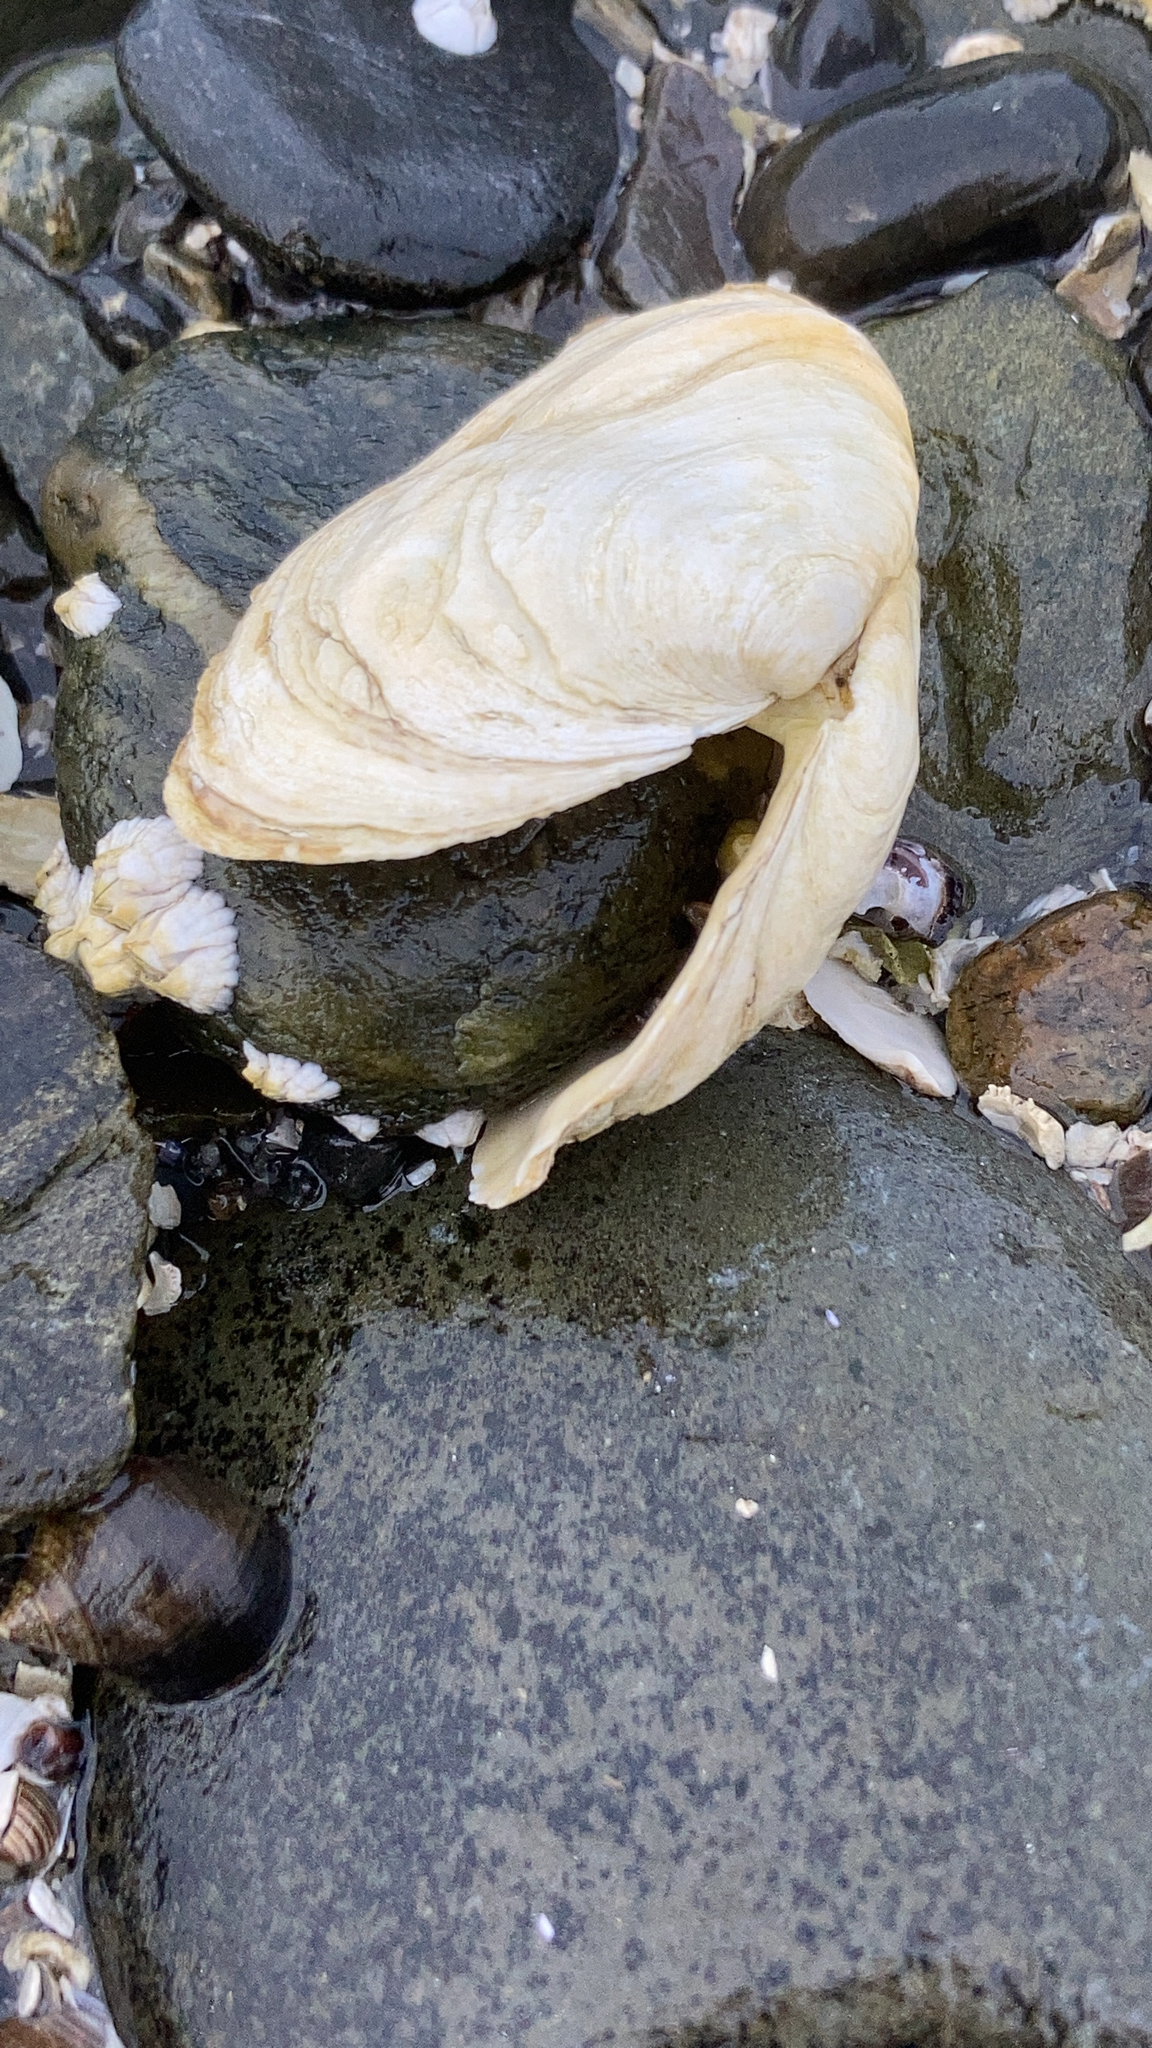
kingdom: Animalia
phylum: Mollusca
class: Bivalvia
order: Myida
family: Myidae
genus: Mya
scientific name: Mya arenaria
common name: Soft-shelled clam
